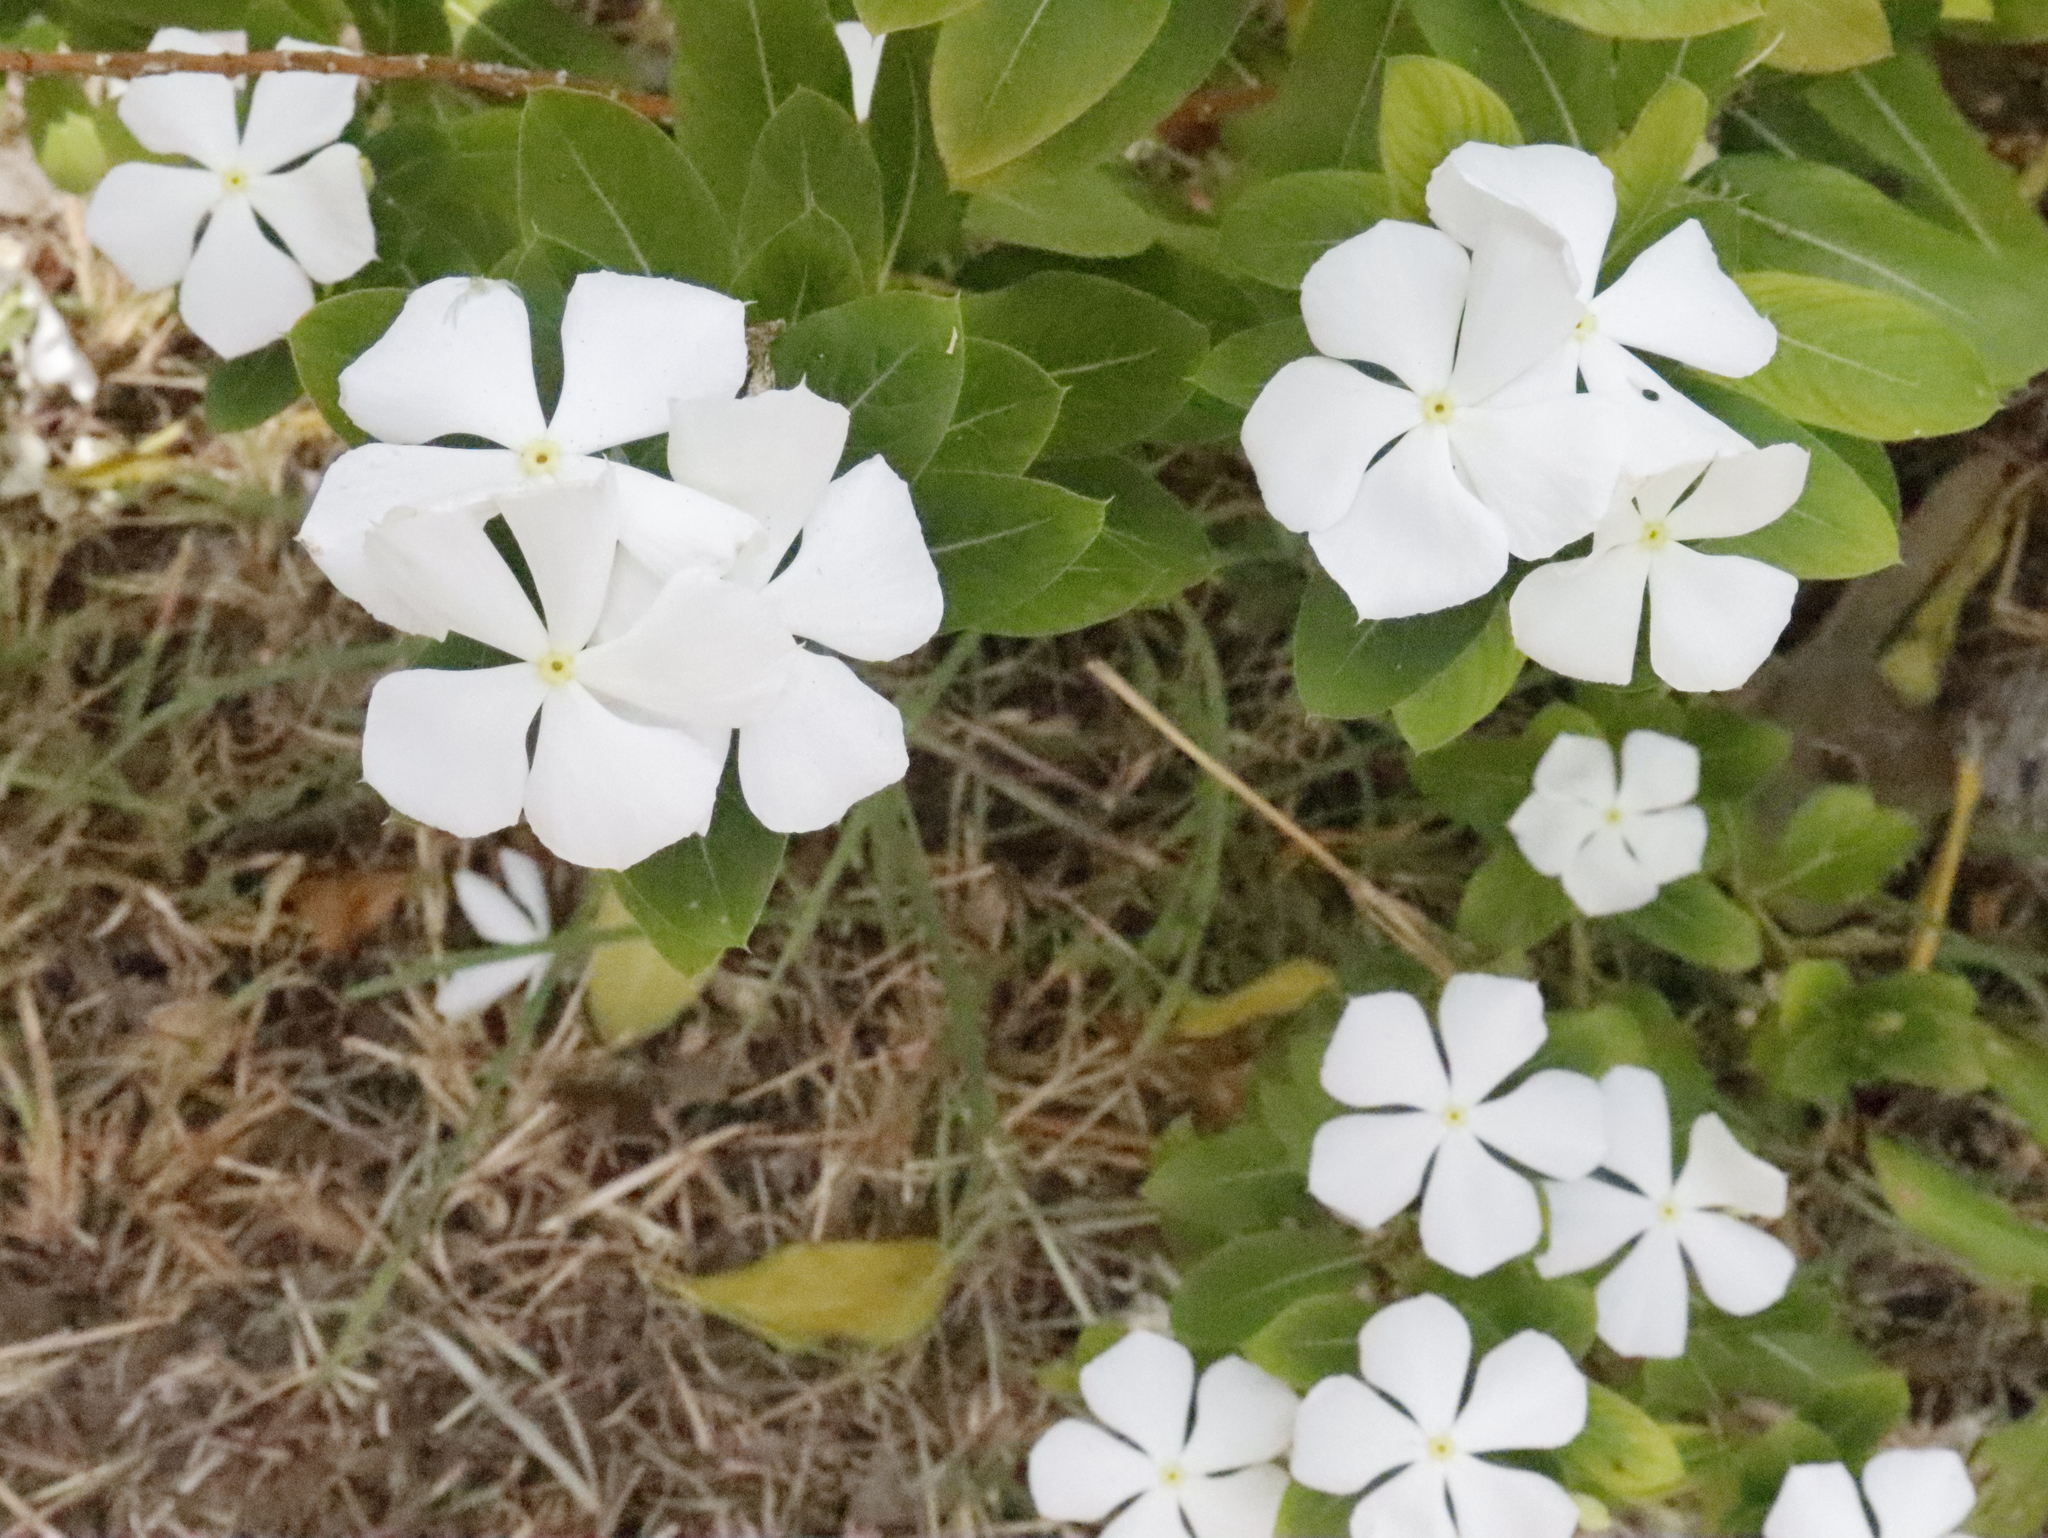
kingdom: Plantae
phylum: Tracheophyta
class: Magnoliopsida
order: Gentianales
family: Apocynaceae
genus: Catharanthus
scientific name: Catharanthus roseus
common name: Madagascar periwinkle
